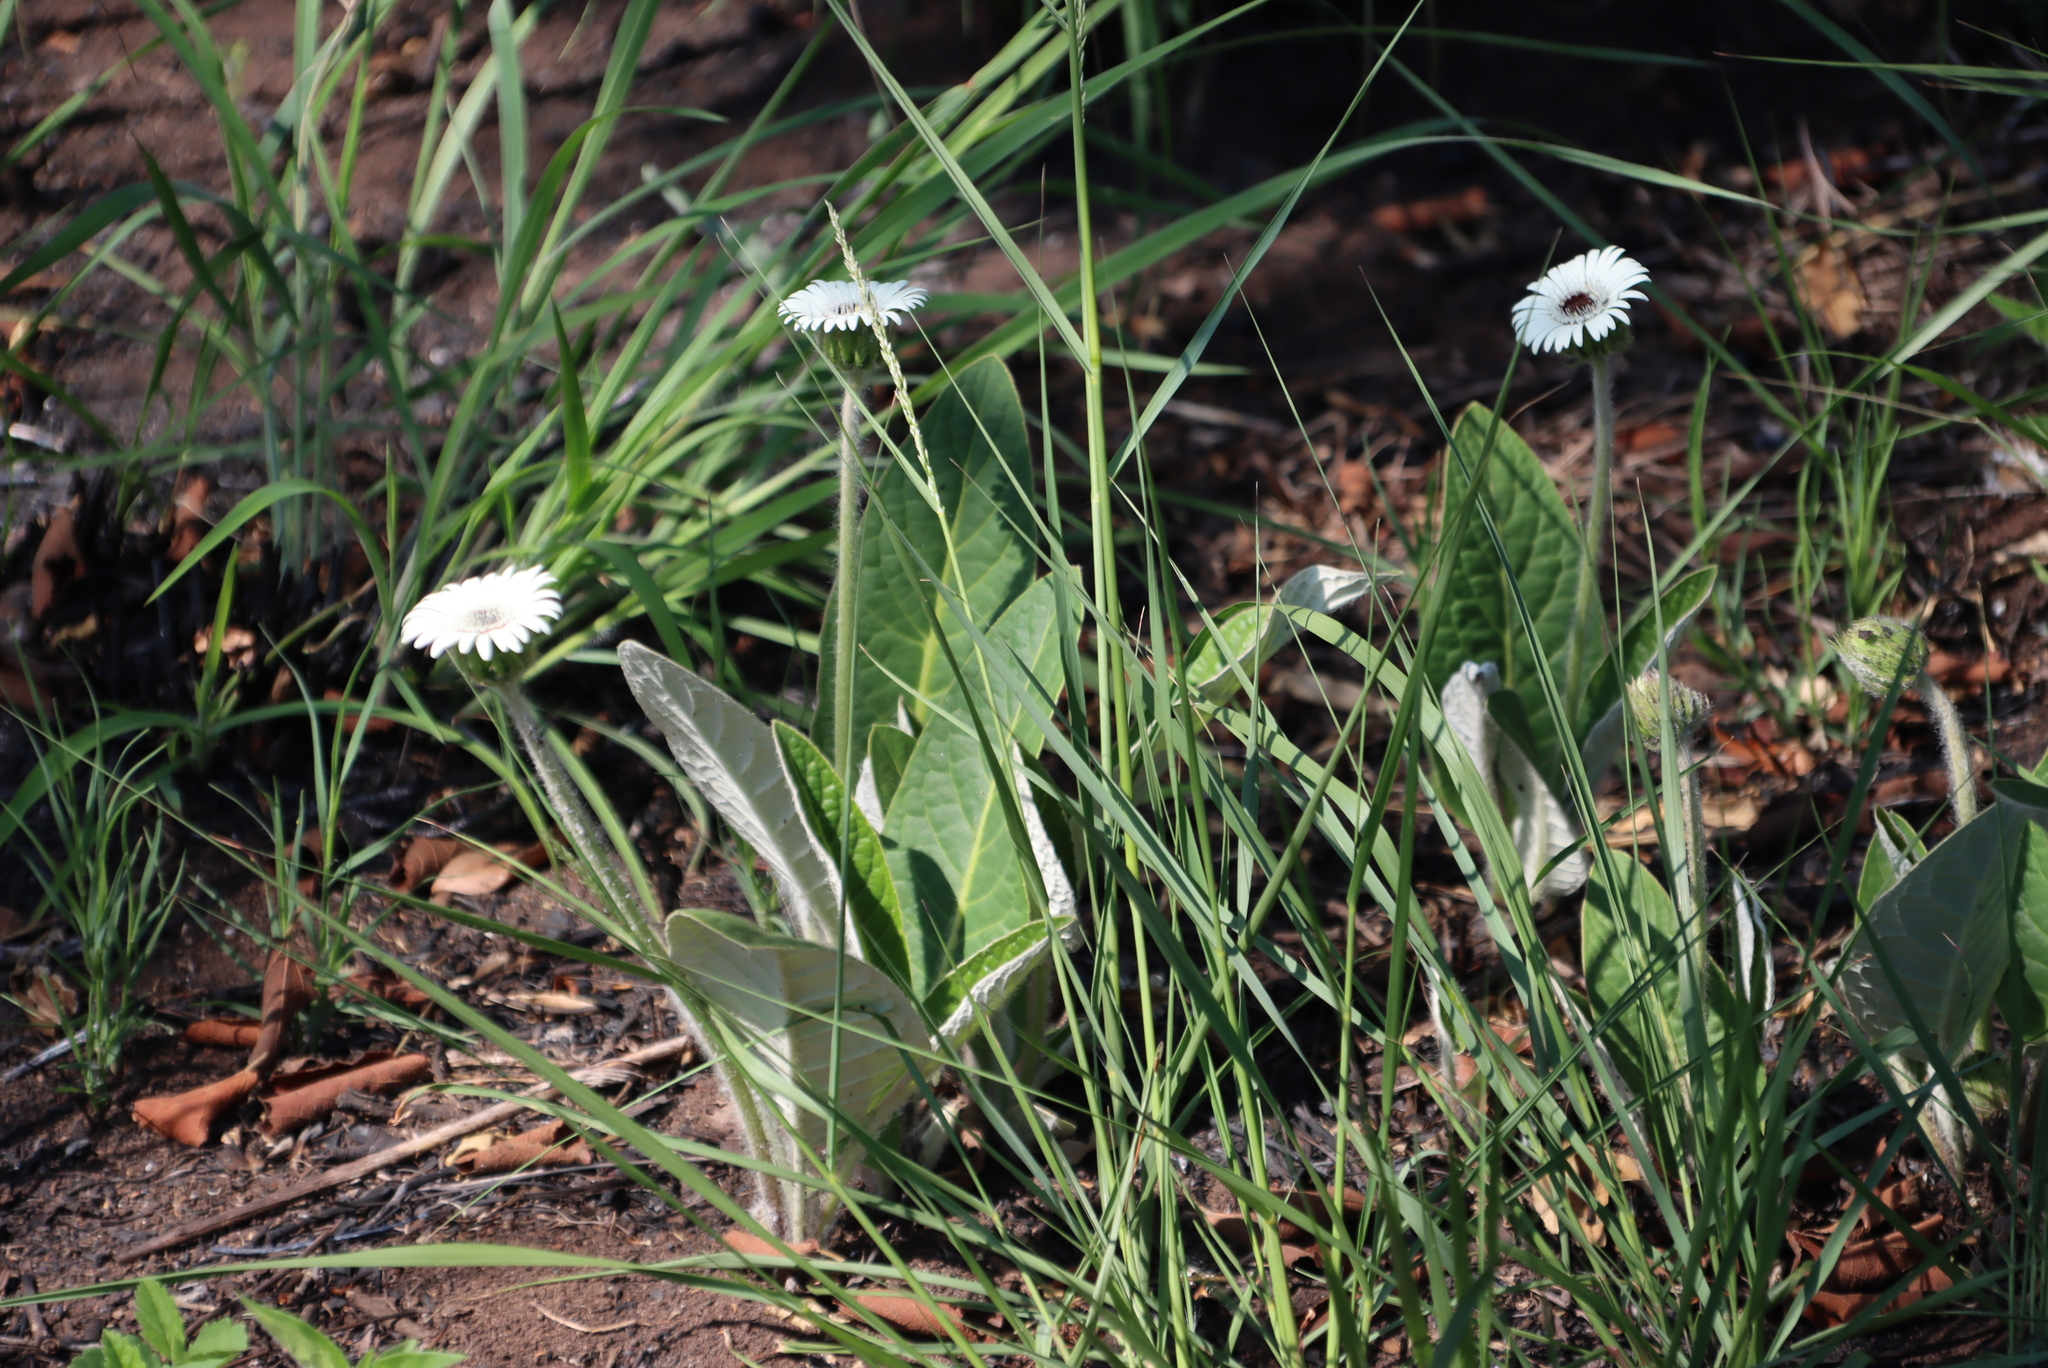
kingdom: Plantae
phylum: Tracheophyta
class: Magnoliopsida
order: Asterales
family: Asteraceae
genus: Gerbera
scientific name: Gerbera ambigua
